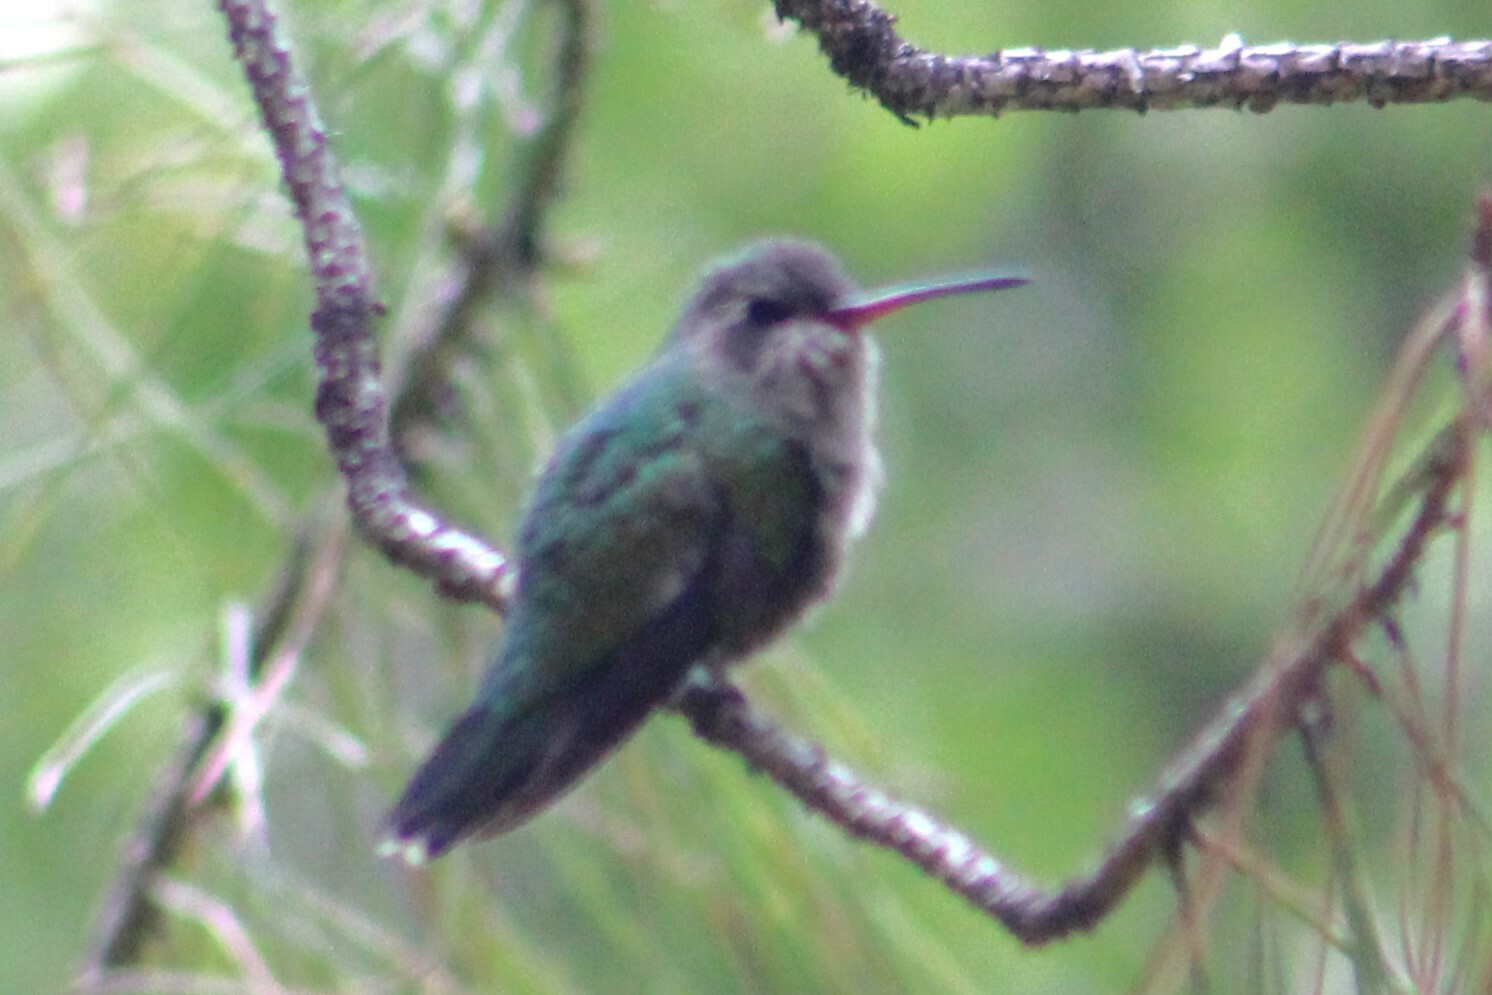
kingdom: Animalia
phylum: Chordata
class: Aves
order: Apodiformes
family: Trochilidae
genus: Cynanthus
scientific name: Cynanthus latirostris
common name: Broad-billed hummingbird
